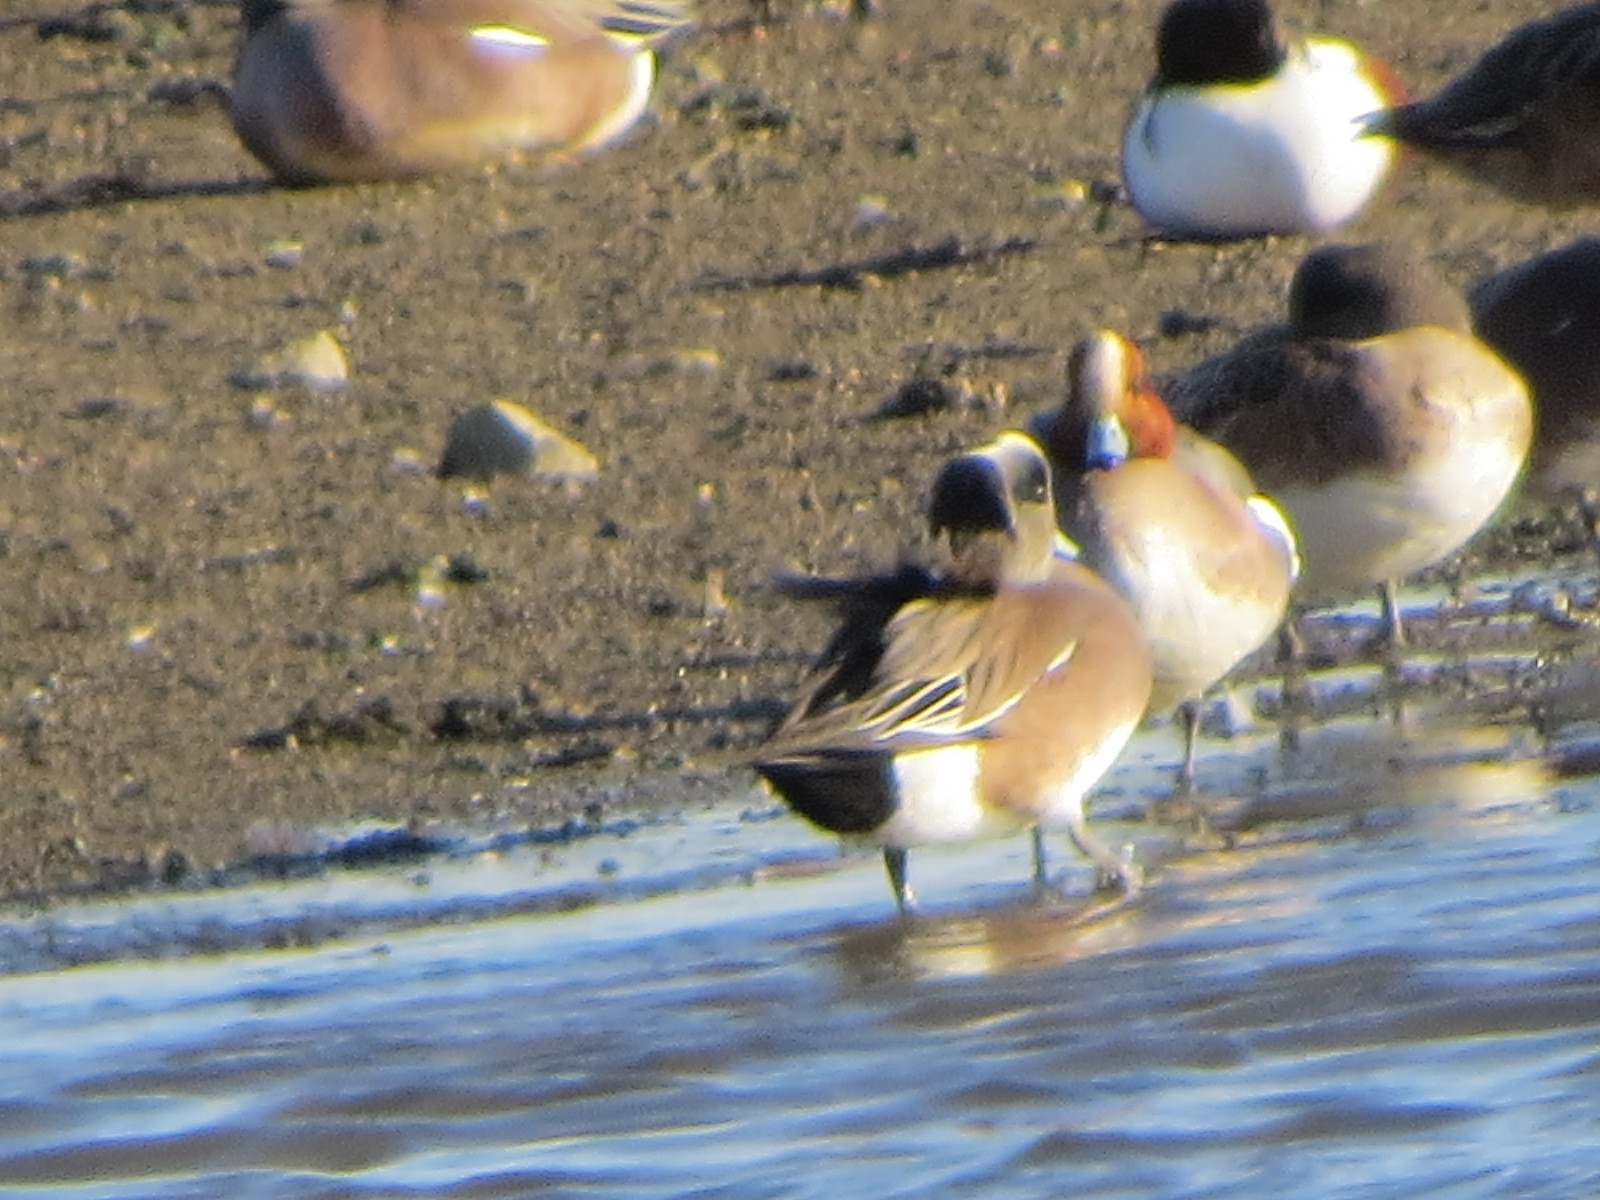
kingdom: Animalia
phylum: Chordata
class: Aves
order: Anseriformes
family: Anatidae
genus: Mareca
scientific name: Mareca penelope
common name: Eurasian wigeon
